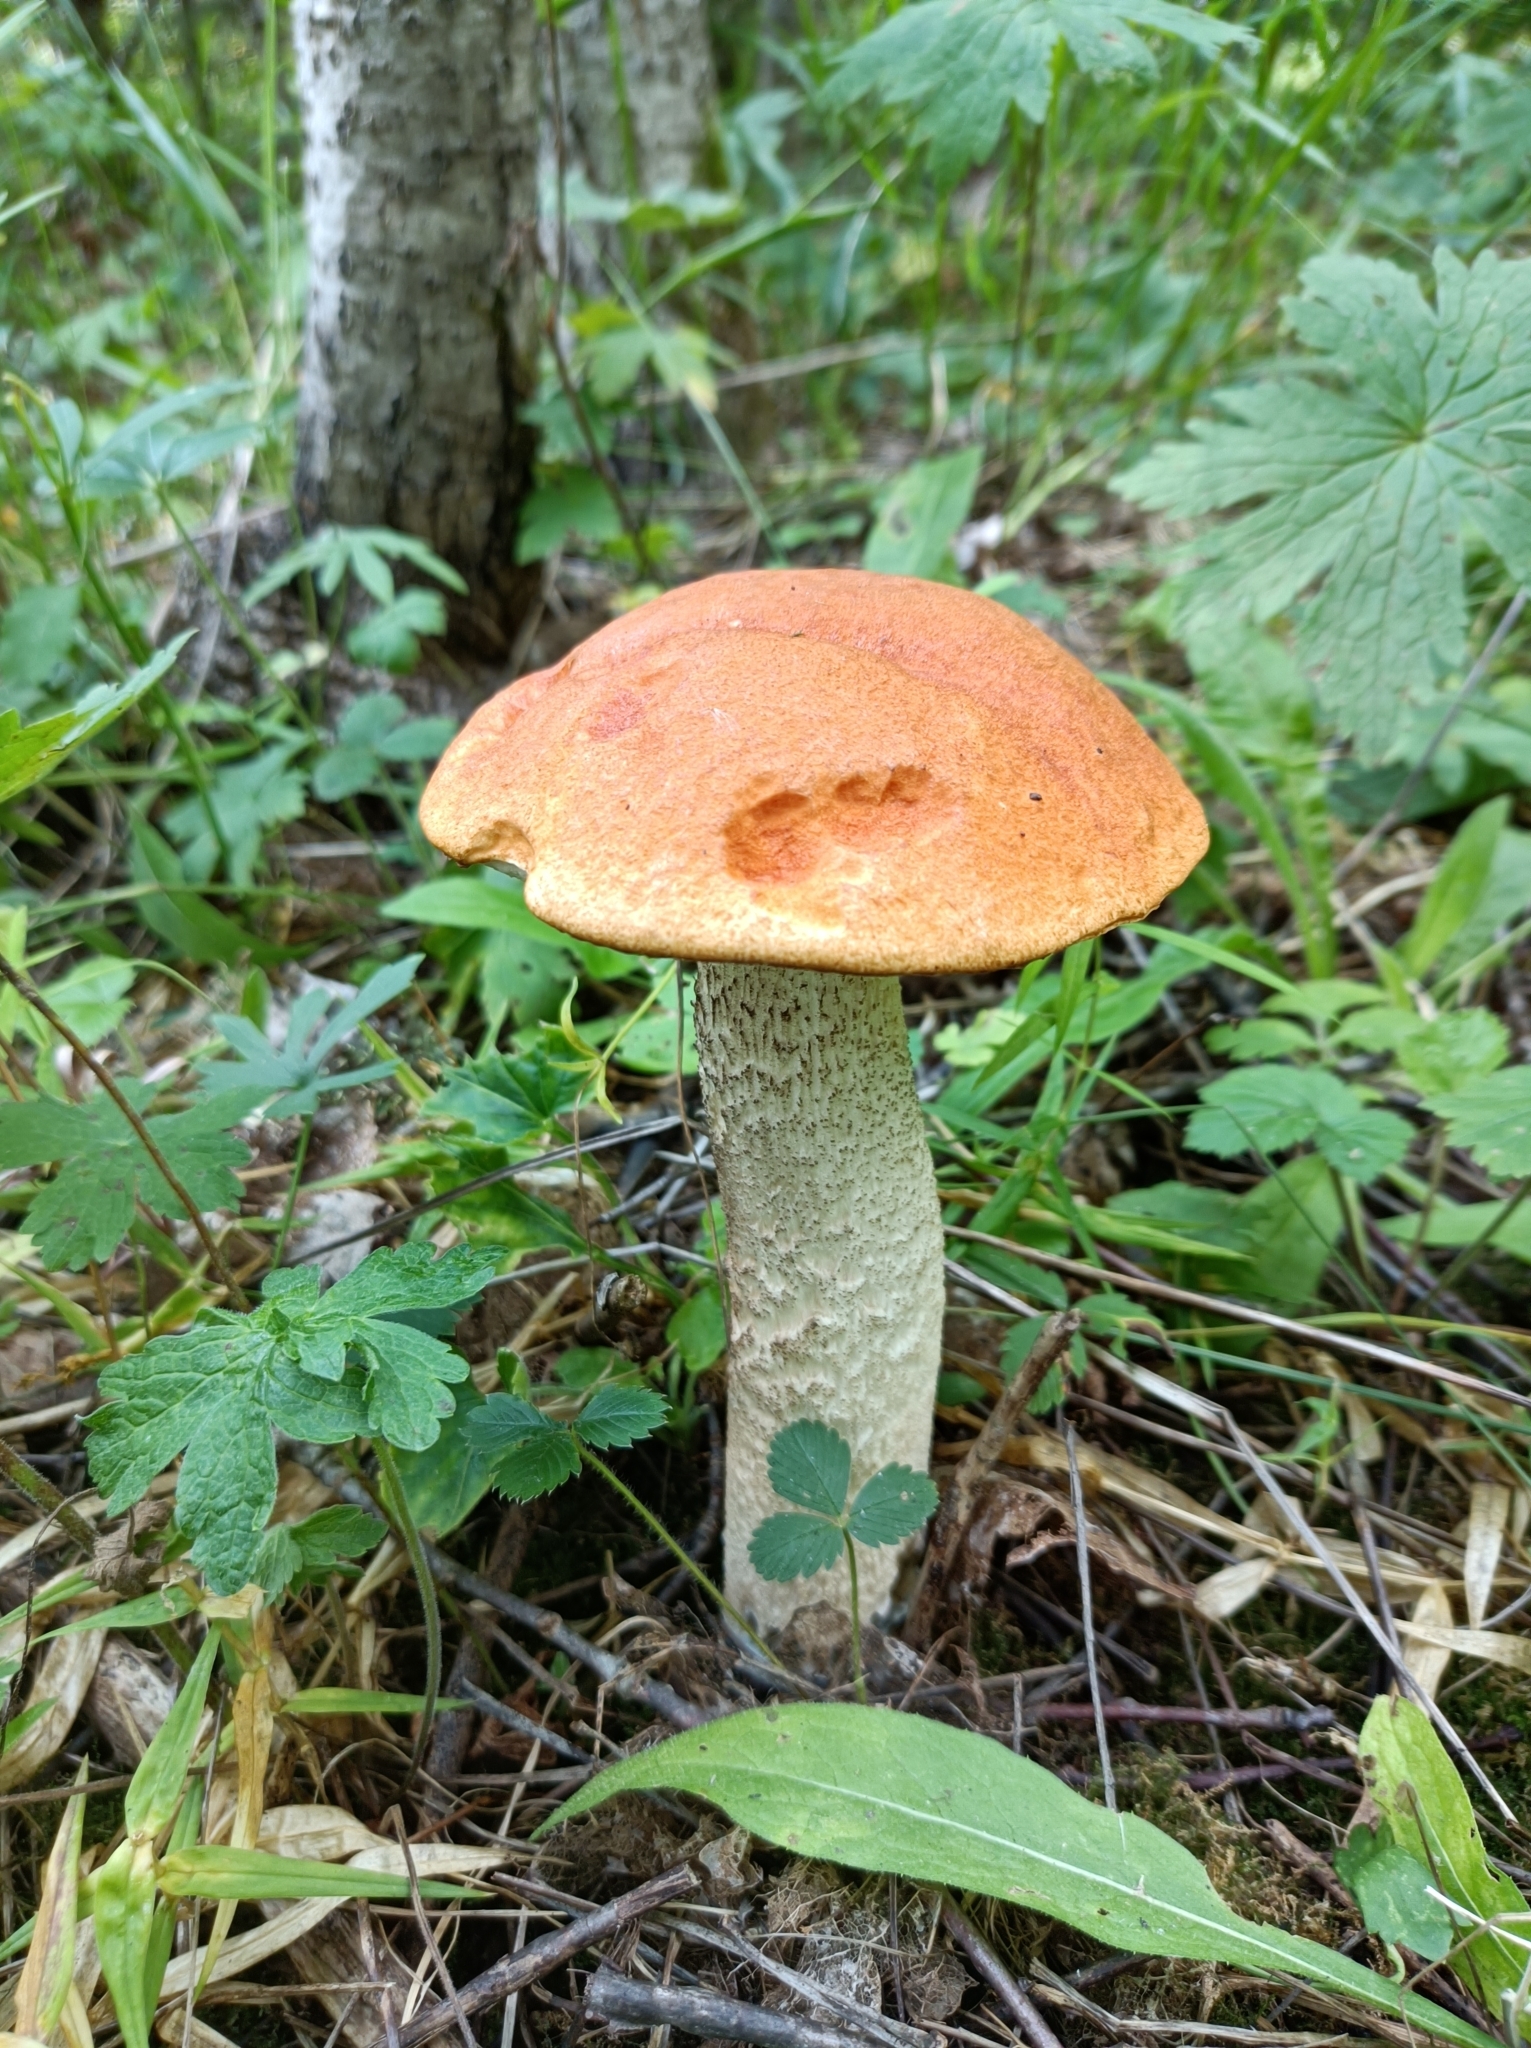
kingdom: Fungi
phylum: Basidiomycota
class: Agaricomycetes
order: Boletales
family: Boletaceae
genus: Leccinum
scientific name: Leccinum albostipitatum
